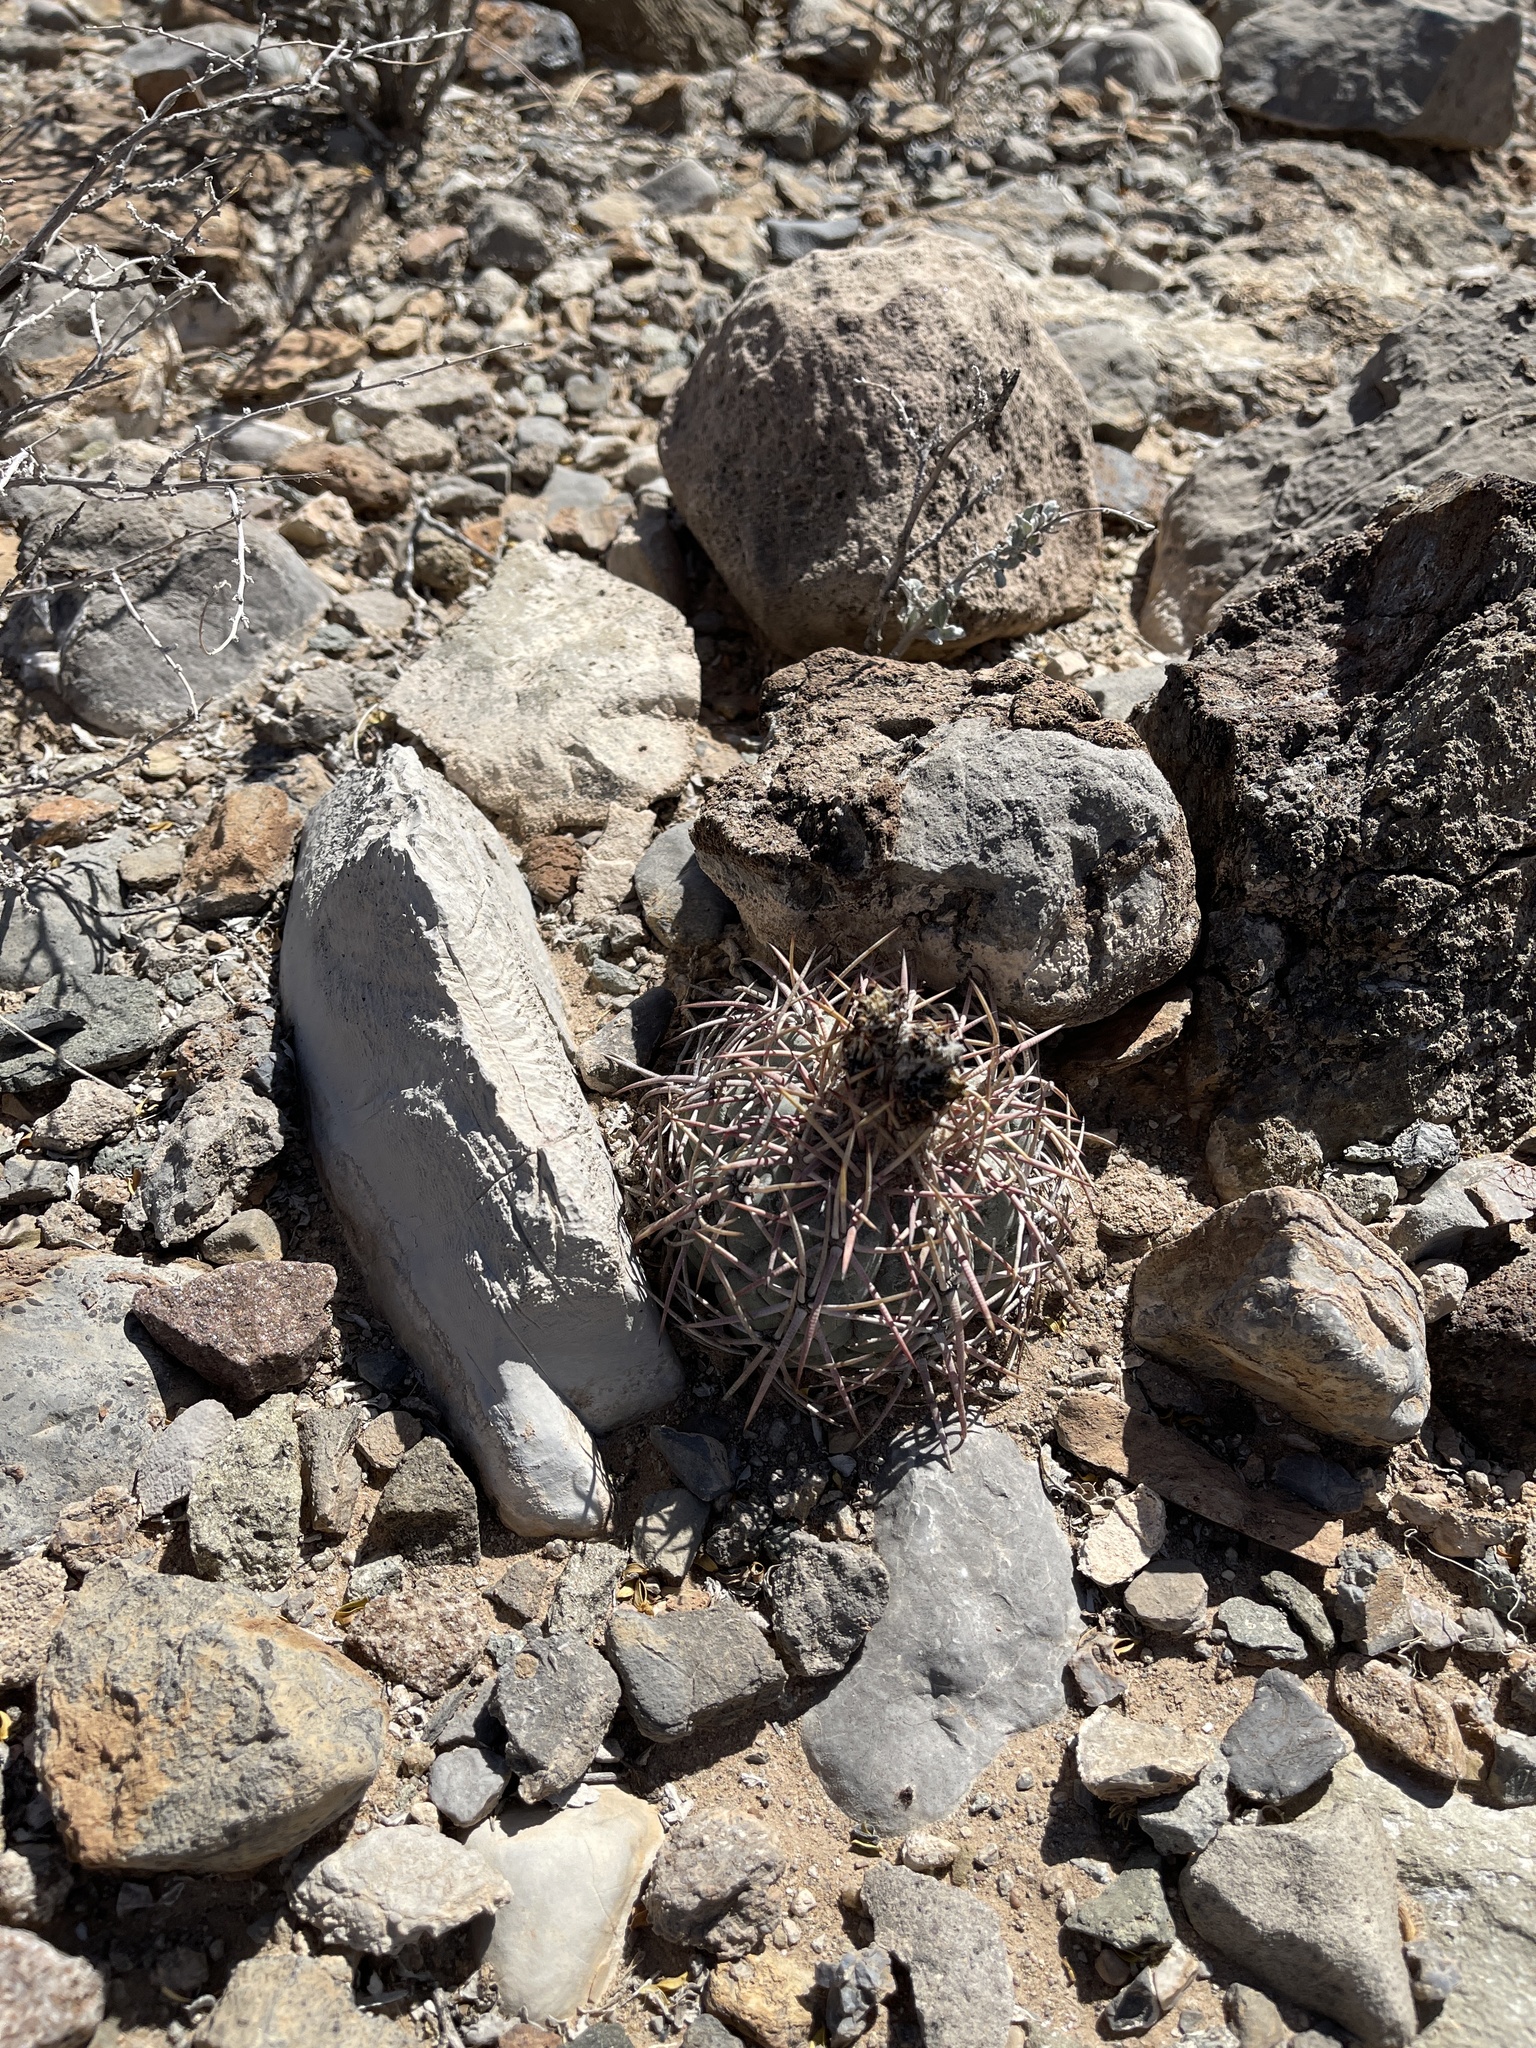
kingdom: Plantae
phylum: Tracheophyta
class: Magnoliopsida
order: Caryophyllales
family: Cactaceae
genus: Echinocactus
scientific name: Echinocactus horizonthalonius
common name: Devilshead
